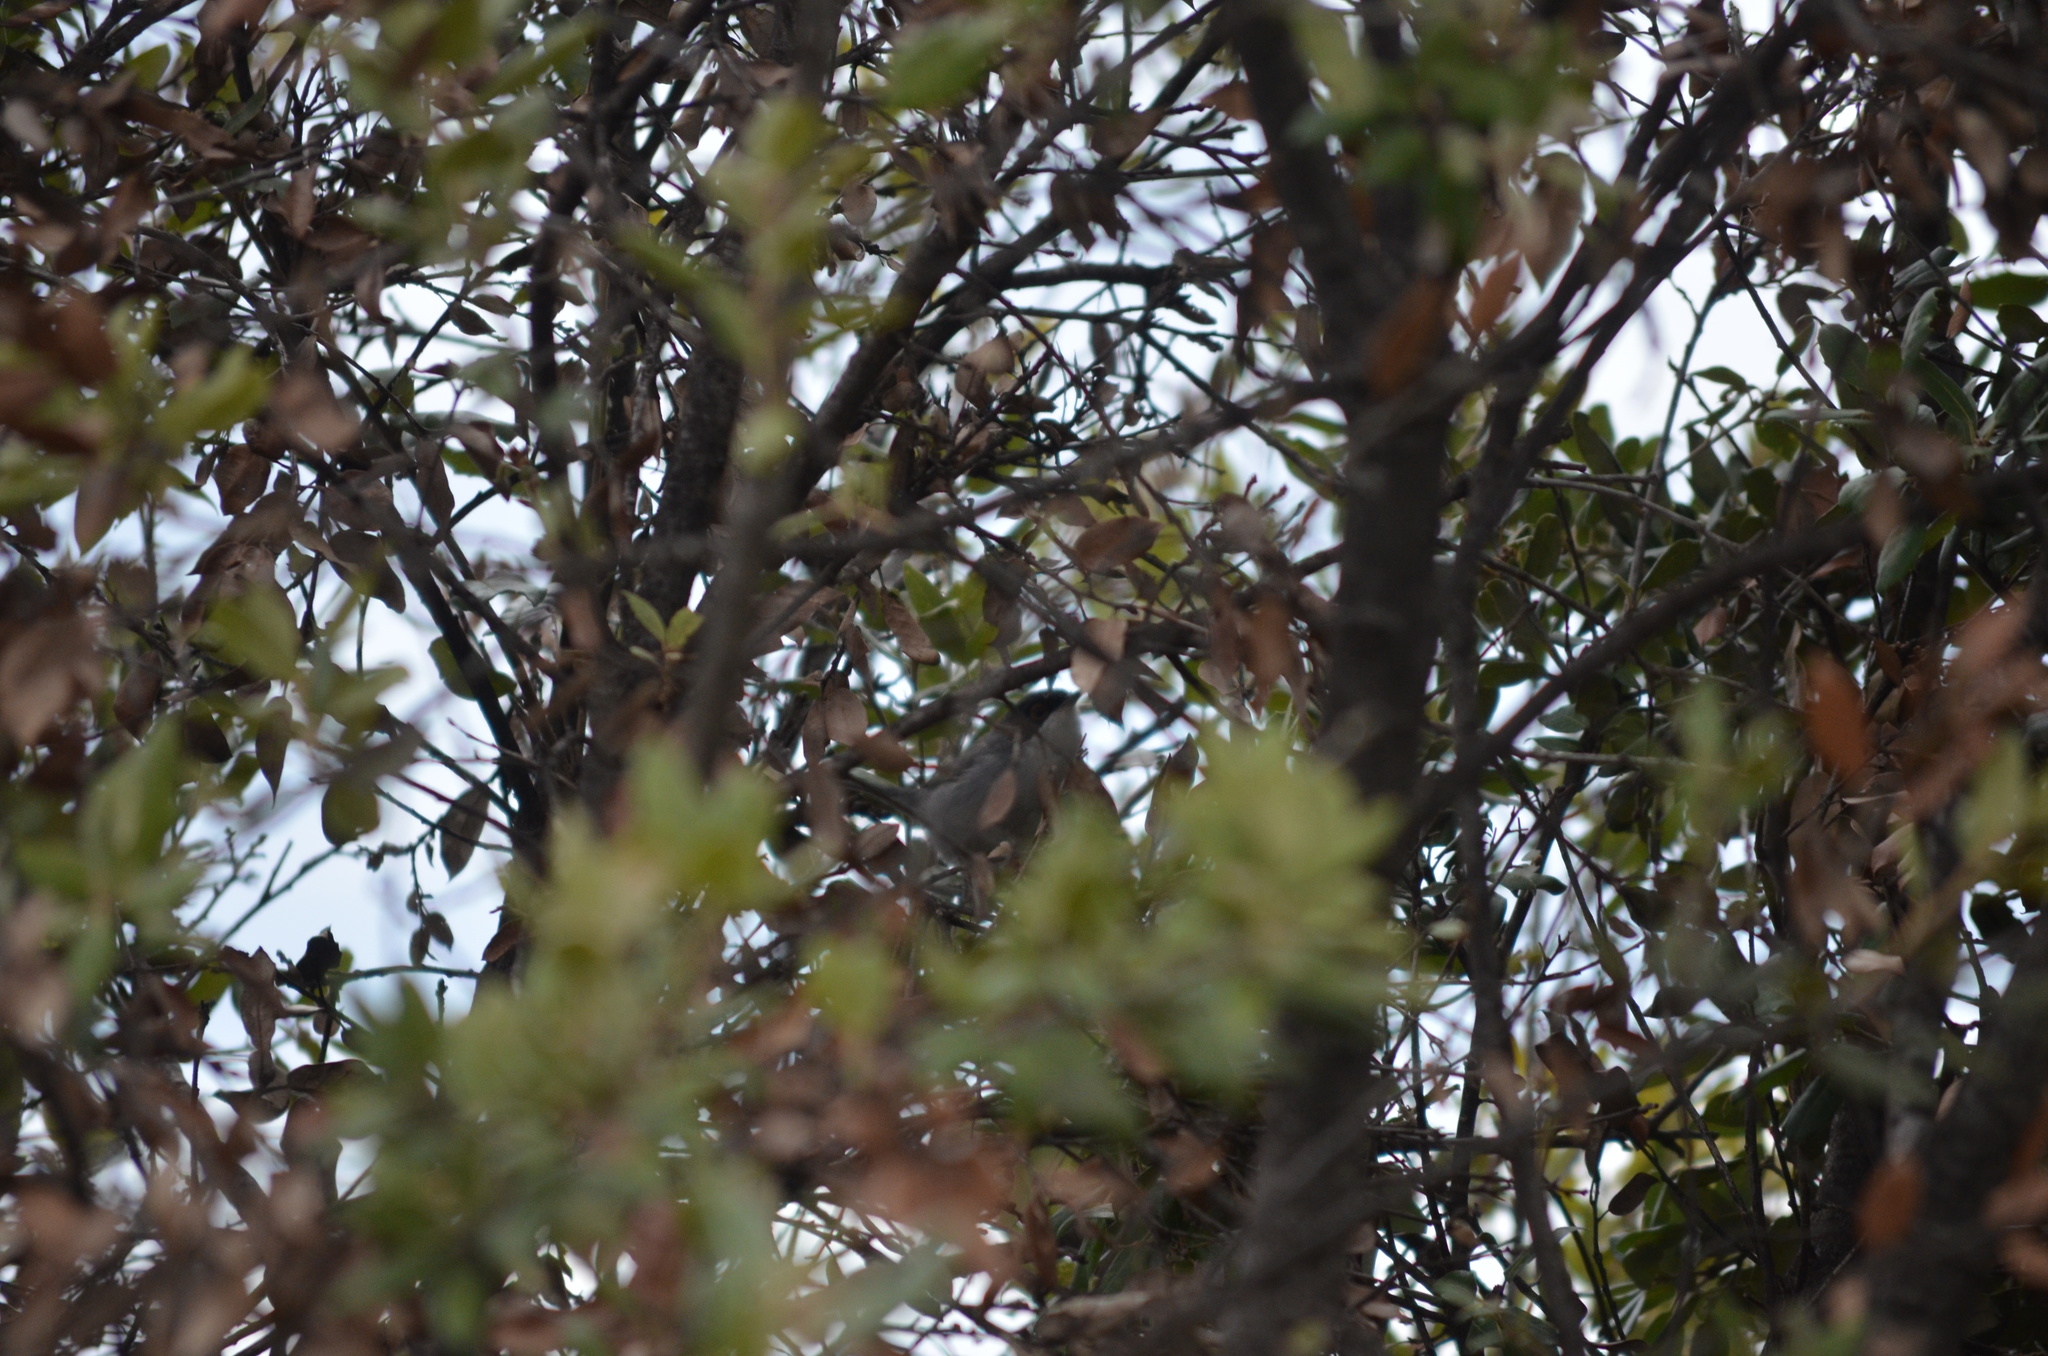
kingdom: Animalia
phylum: Chordata
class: Aves
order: Passeriformes
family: Sylviidae
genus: Curruca
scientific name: Curruca melanocephala
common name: Sardinian warbler
